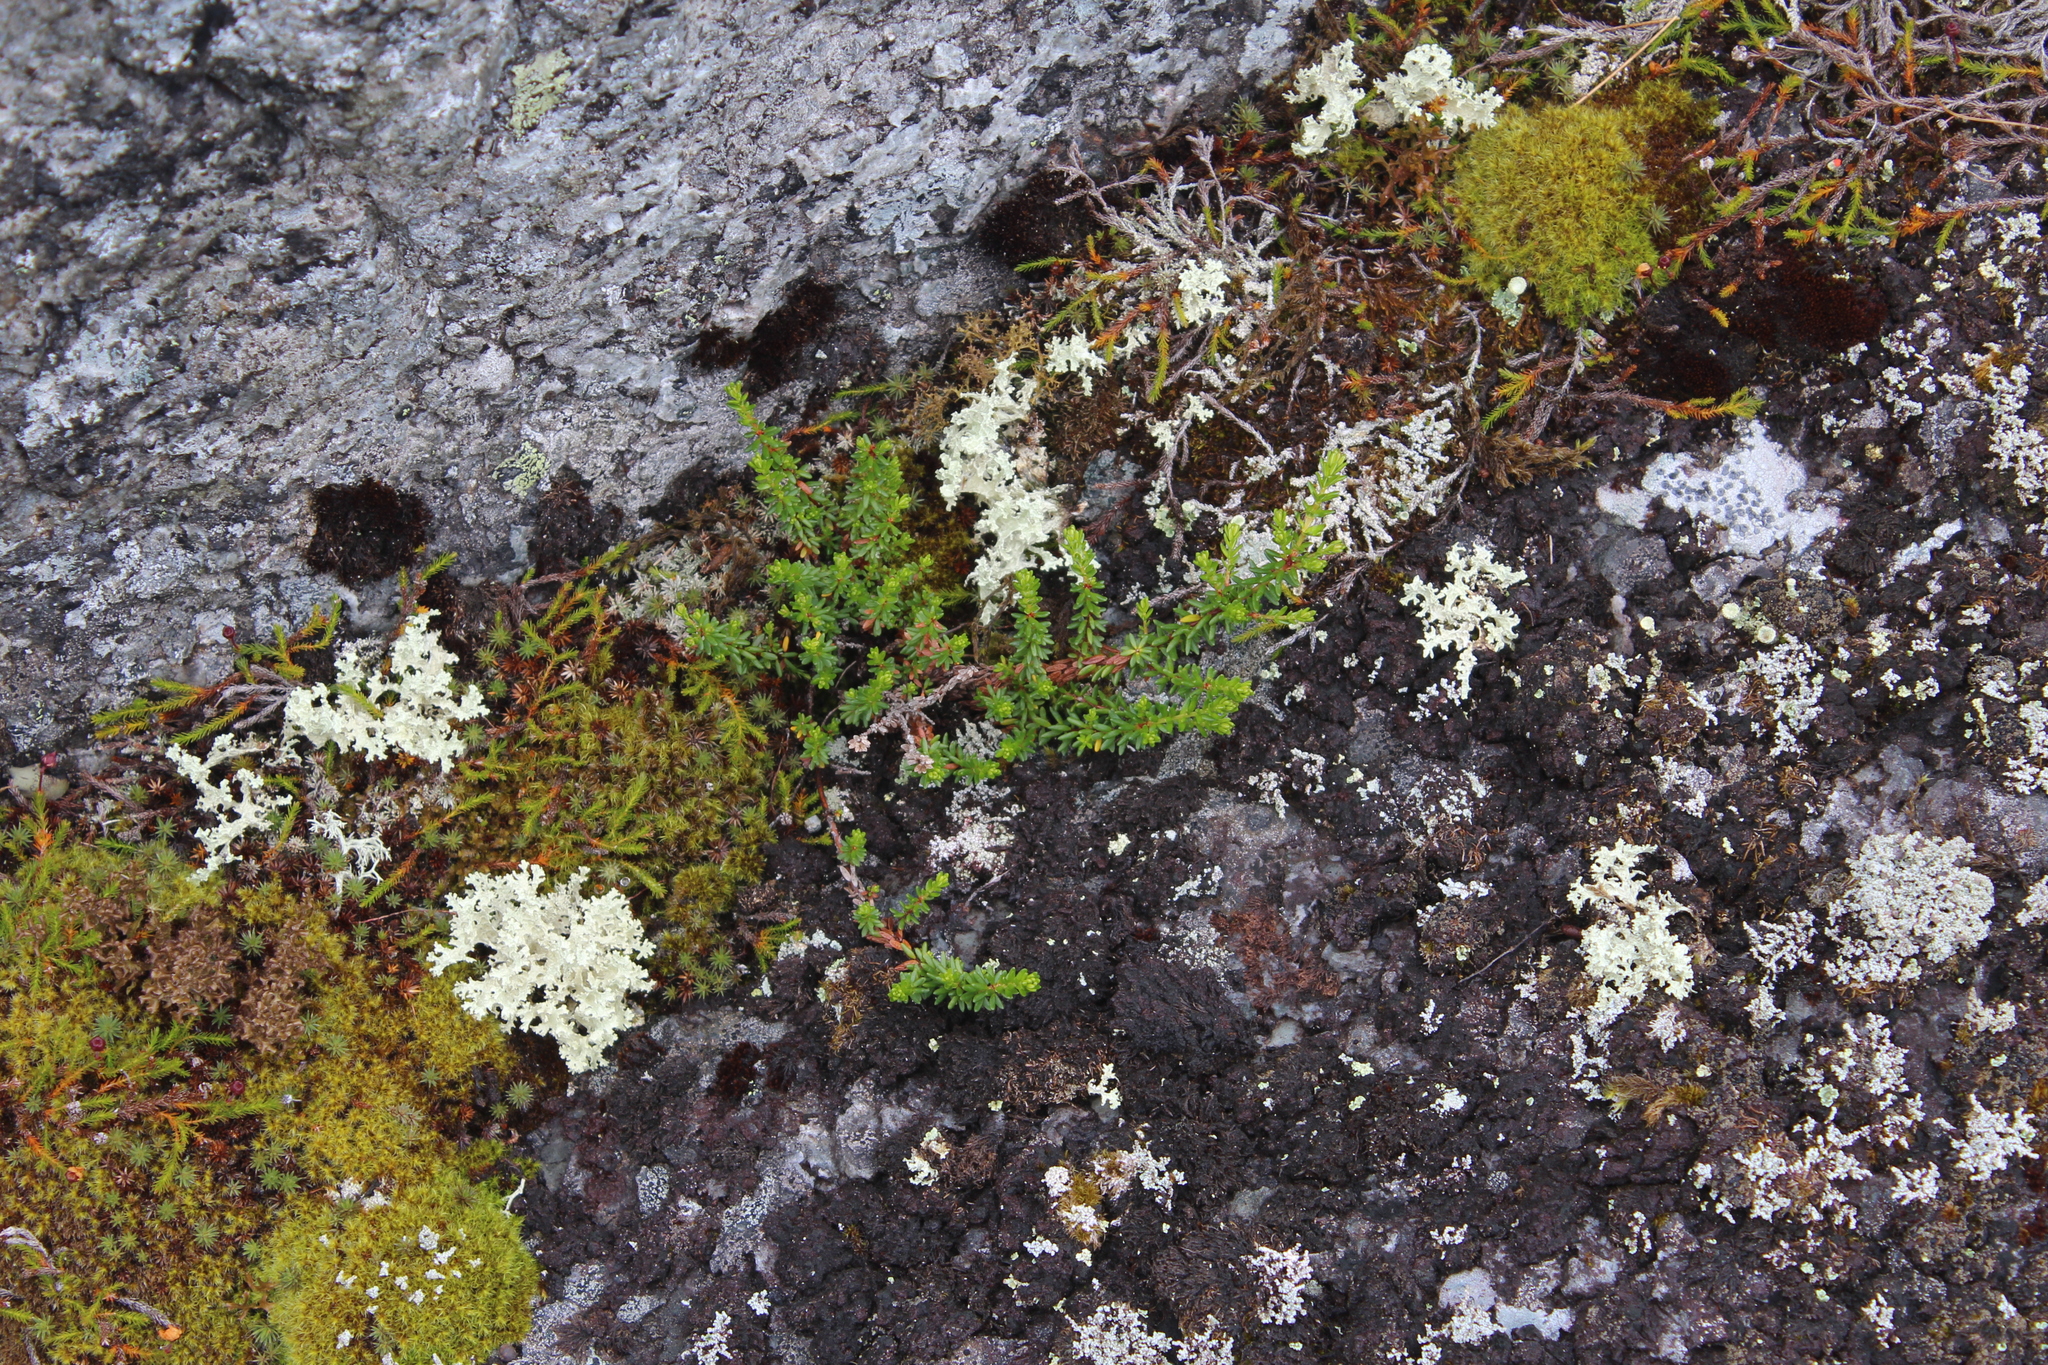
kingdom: Plantae
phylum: Tracheophyta
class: Magnoliopsida
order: Ericales
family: Ericaceae
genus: Empetrum
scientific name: Empetrum nigrum
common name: Black crowberry
